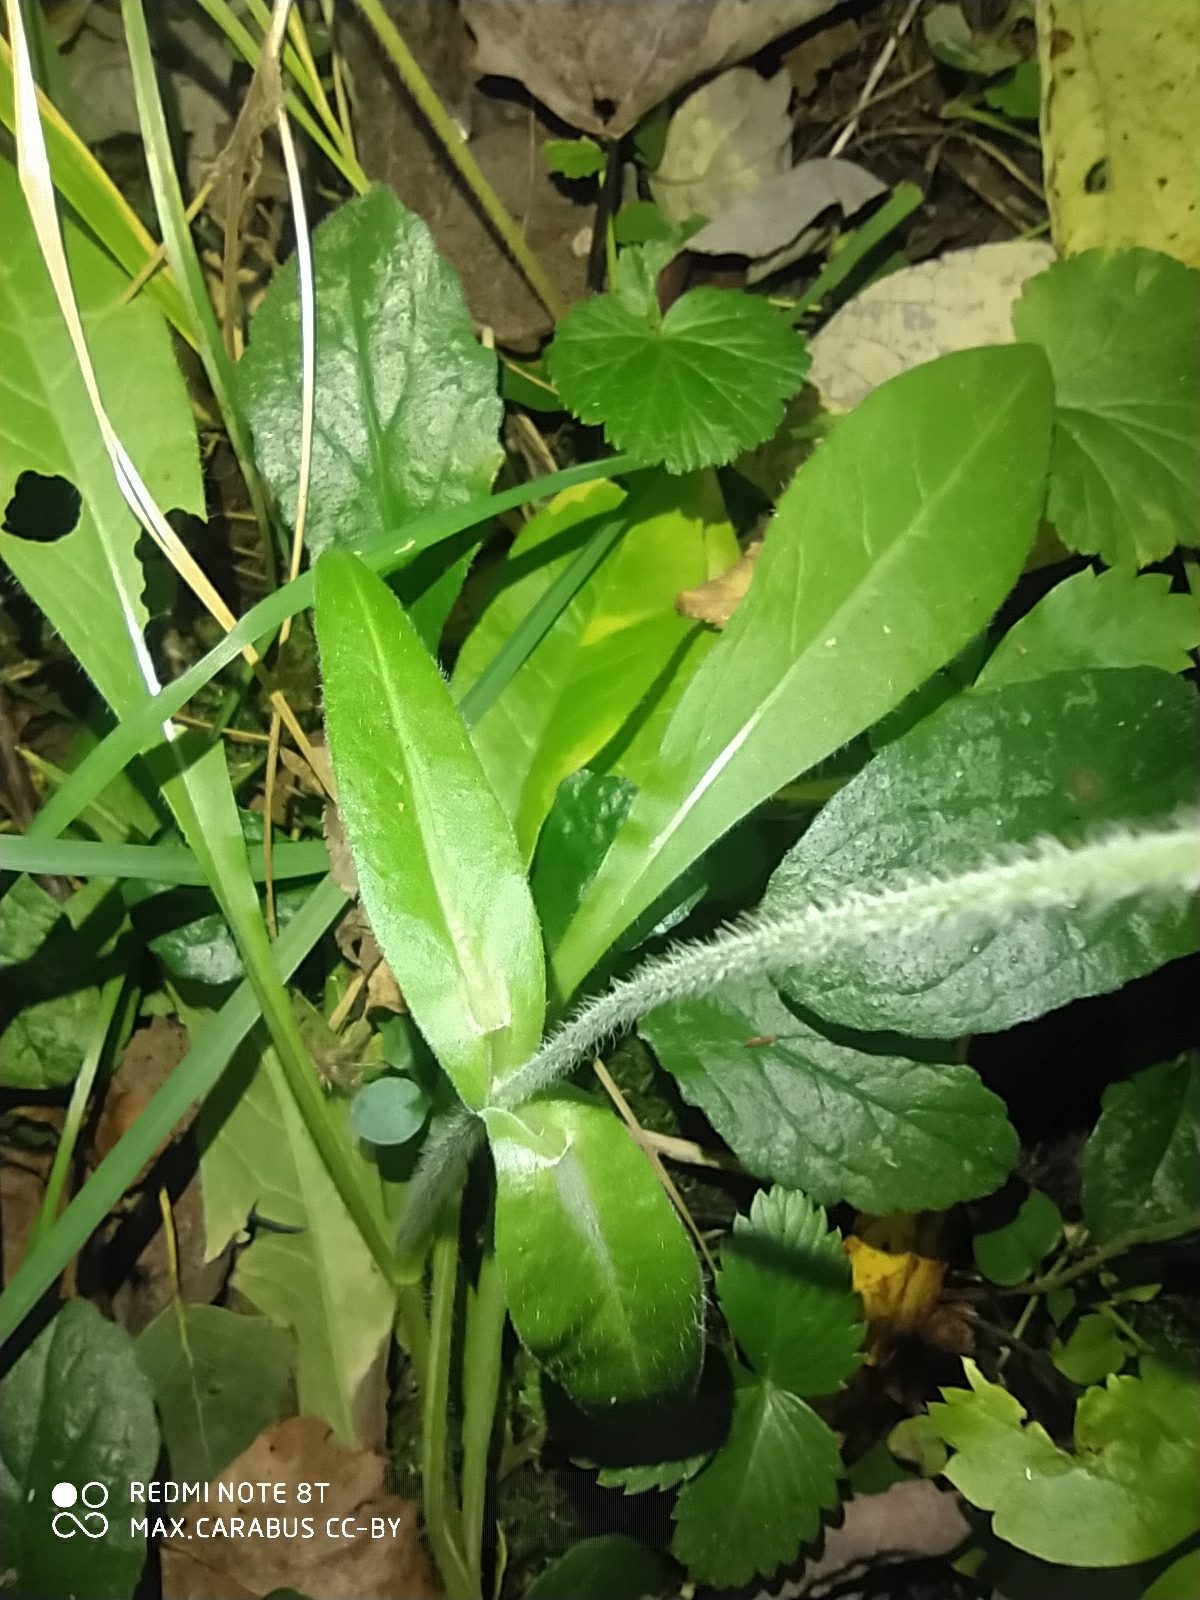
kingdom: Plantae
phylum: Tracheophyta
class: Magnoliopsida
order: Dipsacales
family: Caprifoliaceae
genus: Knautia
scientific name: Knautia arvensis
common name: Field scabiosa
